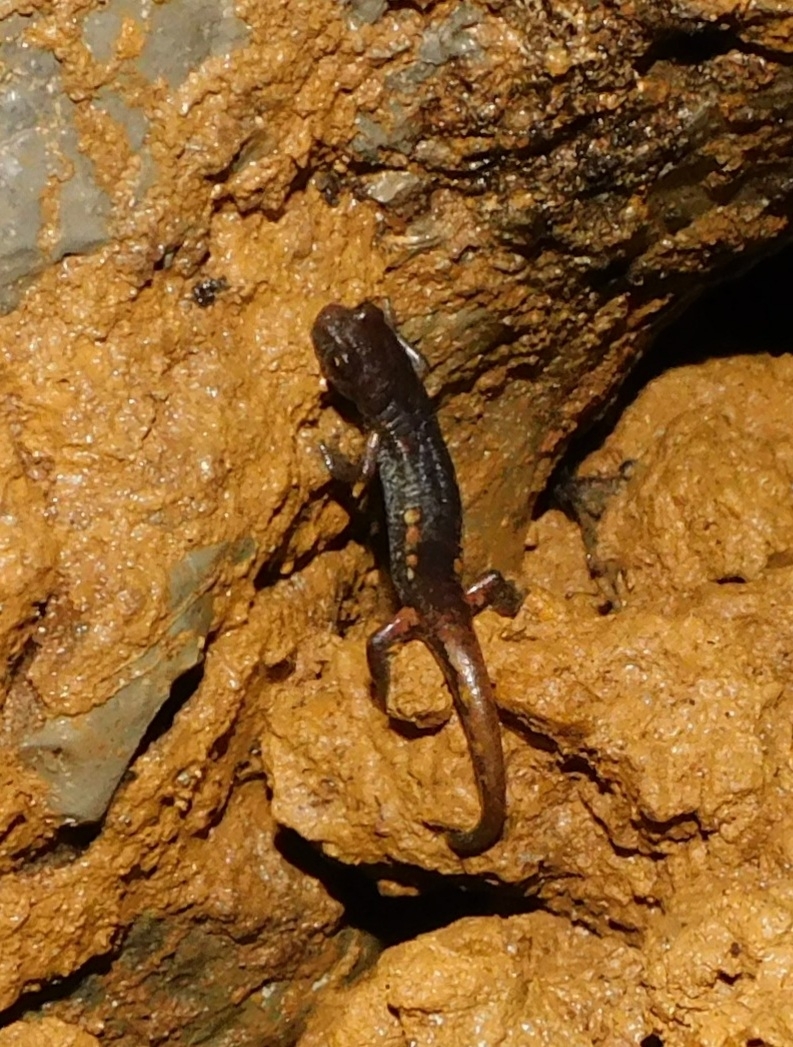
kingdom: Animalia
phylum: Chordata
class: Amphibia
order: Caudata
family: Plethodontidae
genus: Speleomantes
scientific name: Speleomantes ambrosii
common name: Ambrosi's cave salamander
